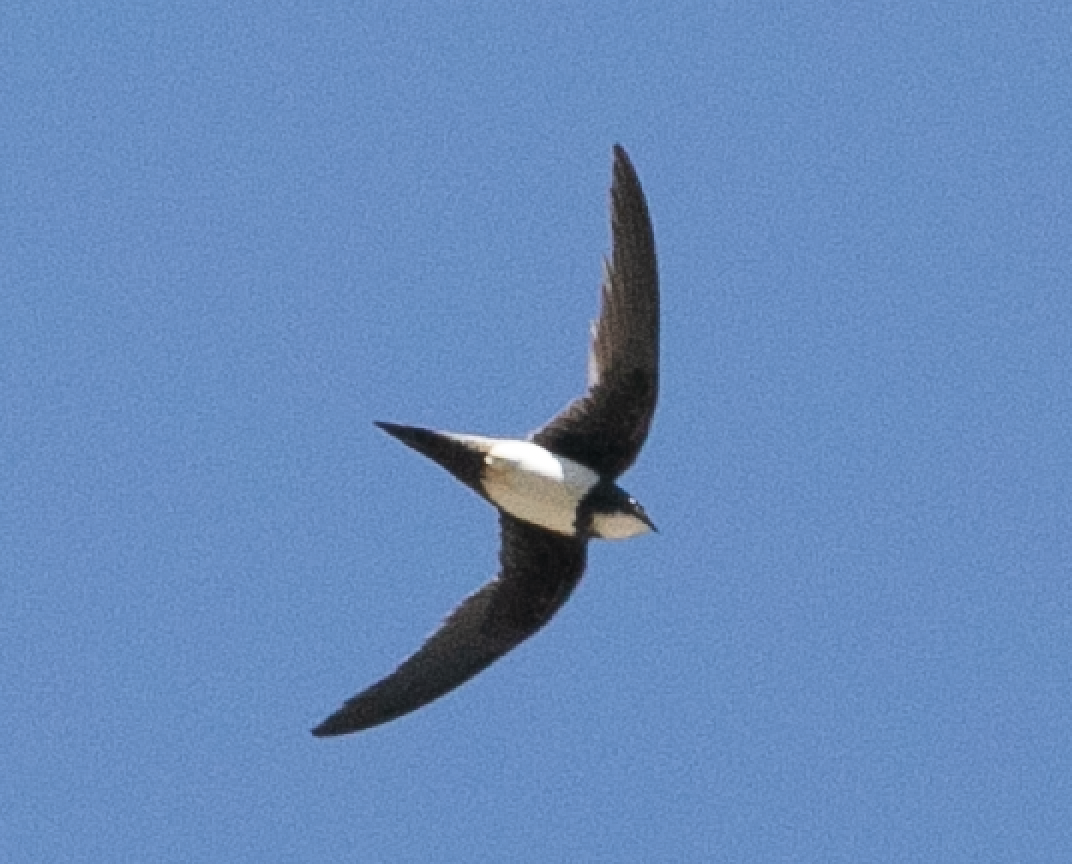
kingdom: Animalia
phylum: Chordata
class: Aves
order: Apodiformes
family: Apodidae
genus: Tachymarptis
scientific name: Tachymarptis melba
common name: Alpine swift
